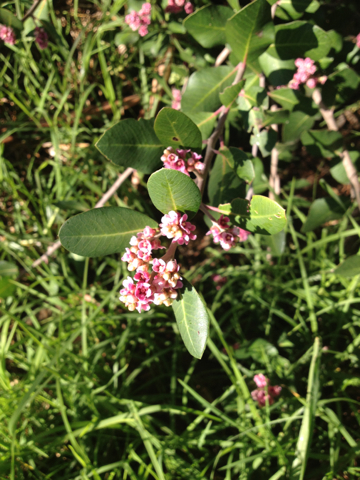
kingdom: Plantae
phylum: Tracheophyta
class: Magnoliopsida
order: Sapindales
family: Anacardiaceae
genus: Rhus
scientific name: Rhus integrifolia
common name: Lemonade sumac
